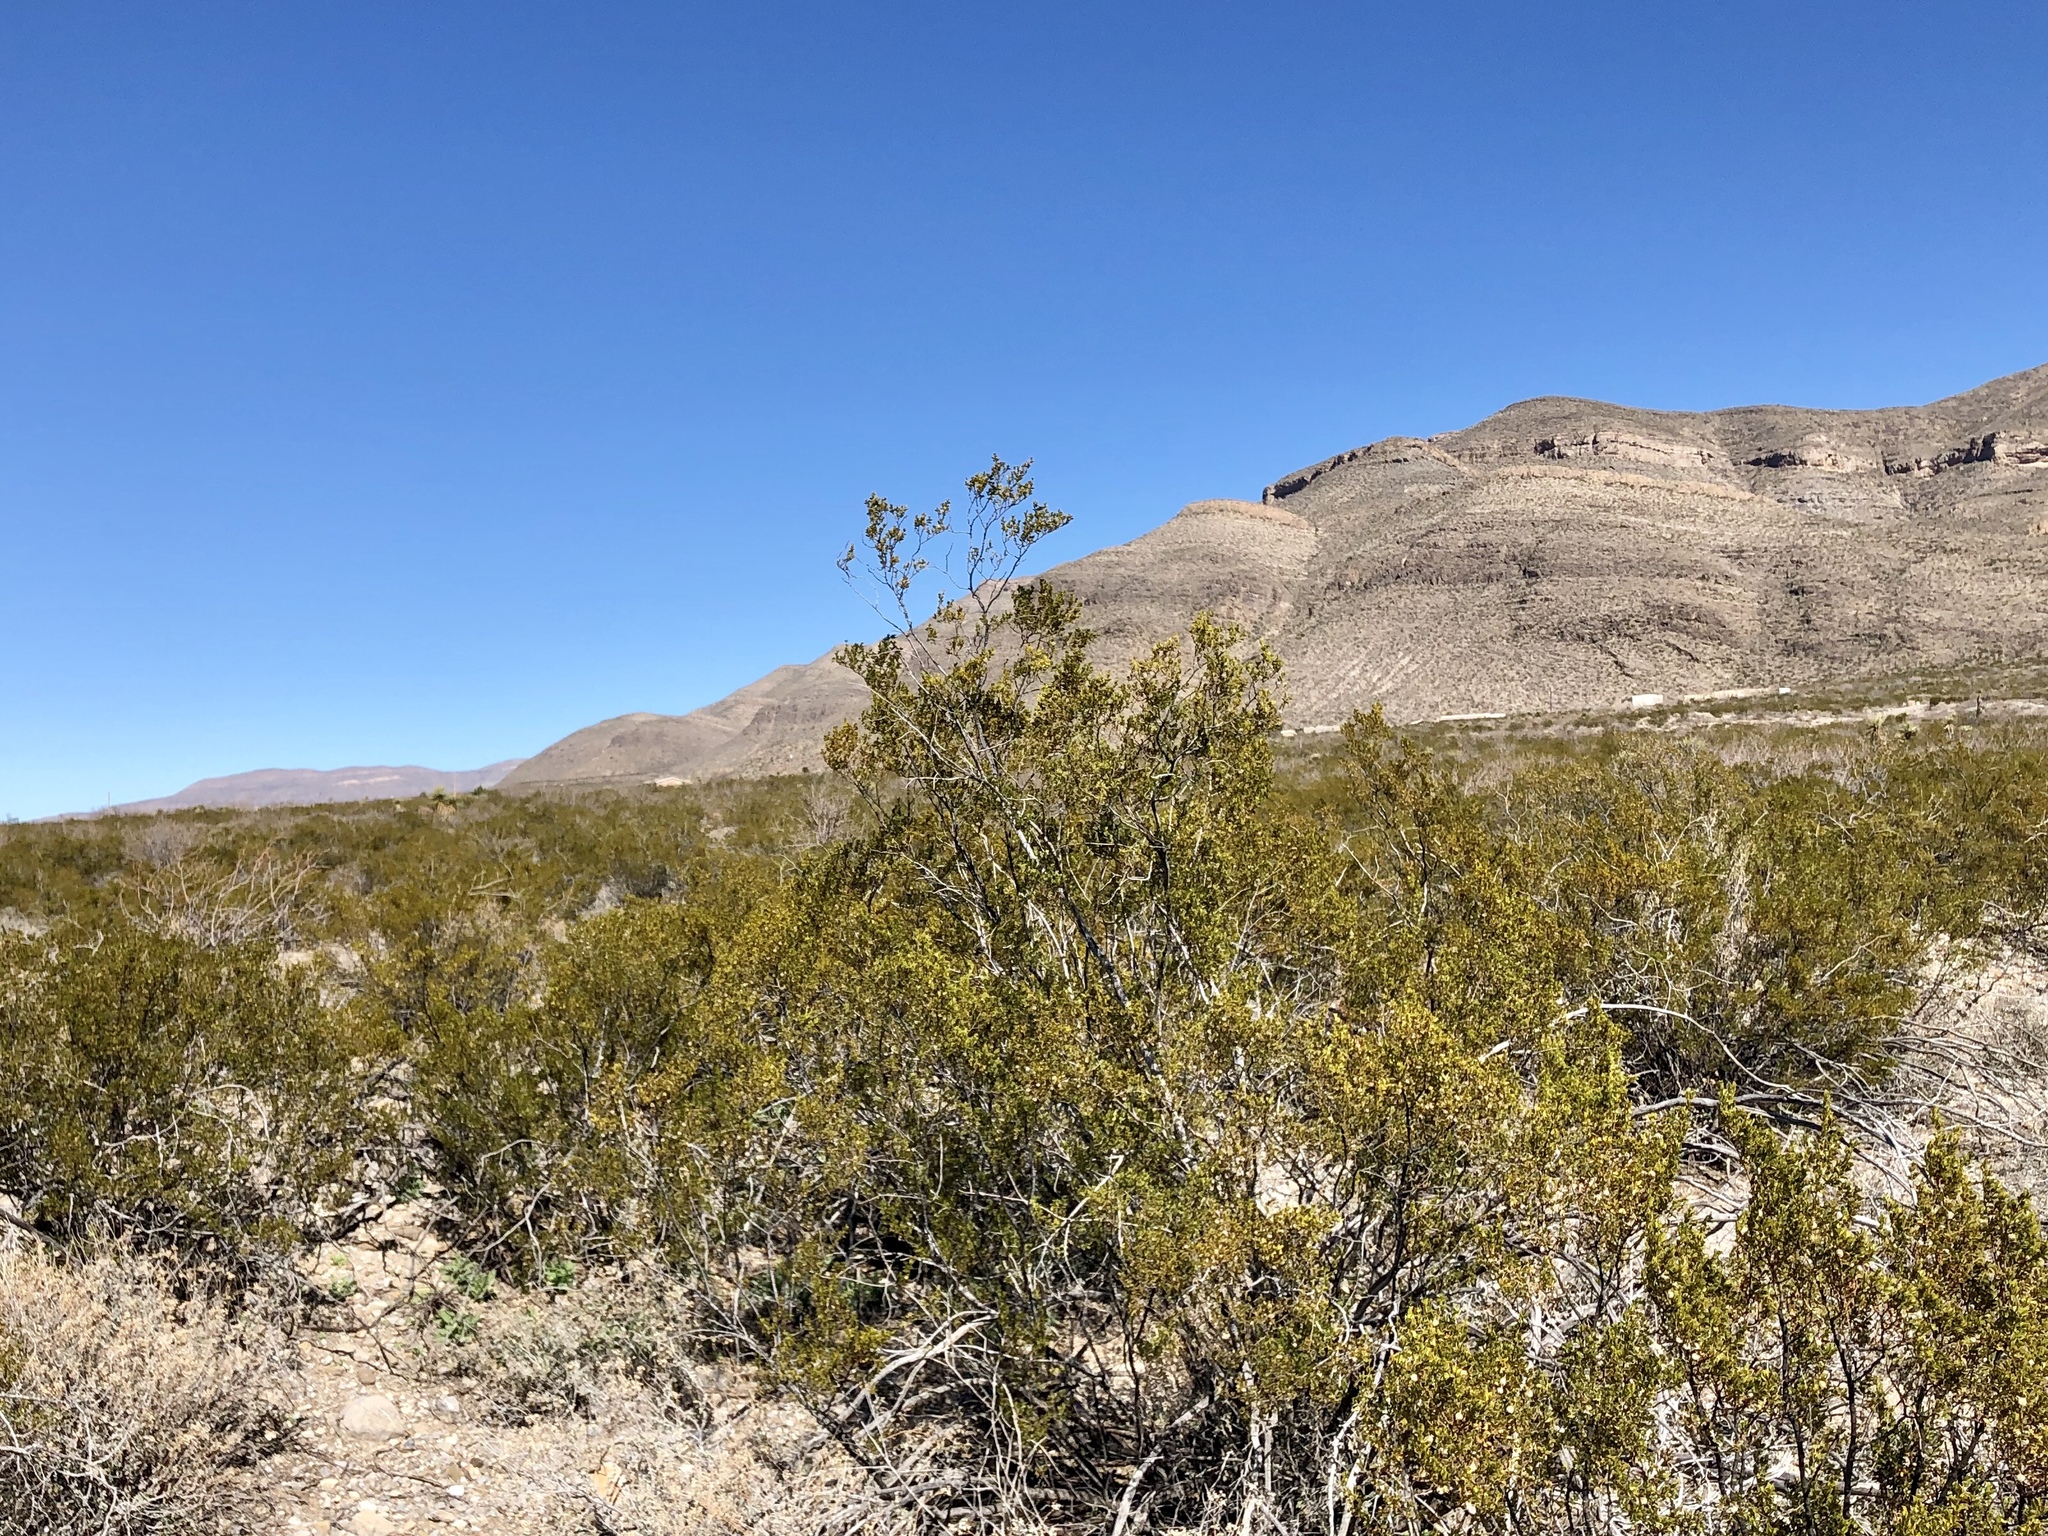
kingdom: Plantae
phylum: Tracheophyta
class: Magnoliopsida
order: Zygophyllales
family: Zygophyllaceae
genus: Larrea
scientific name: Larrea tridentata
